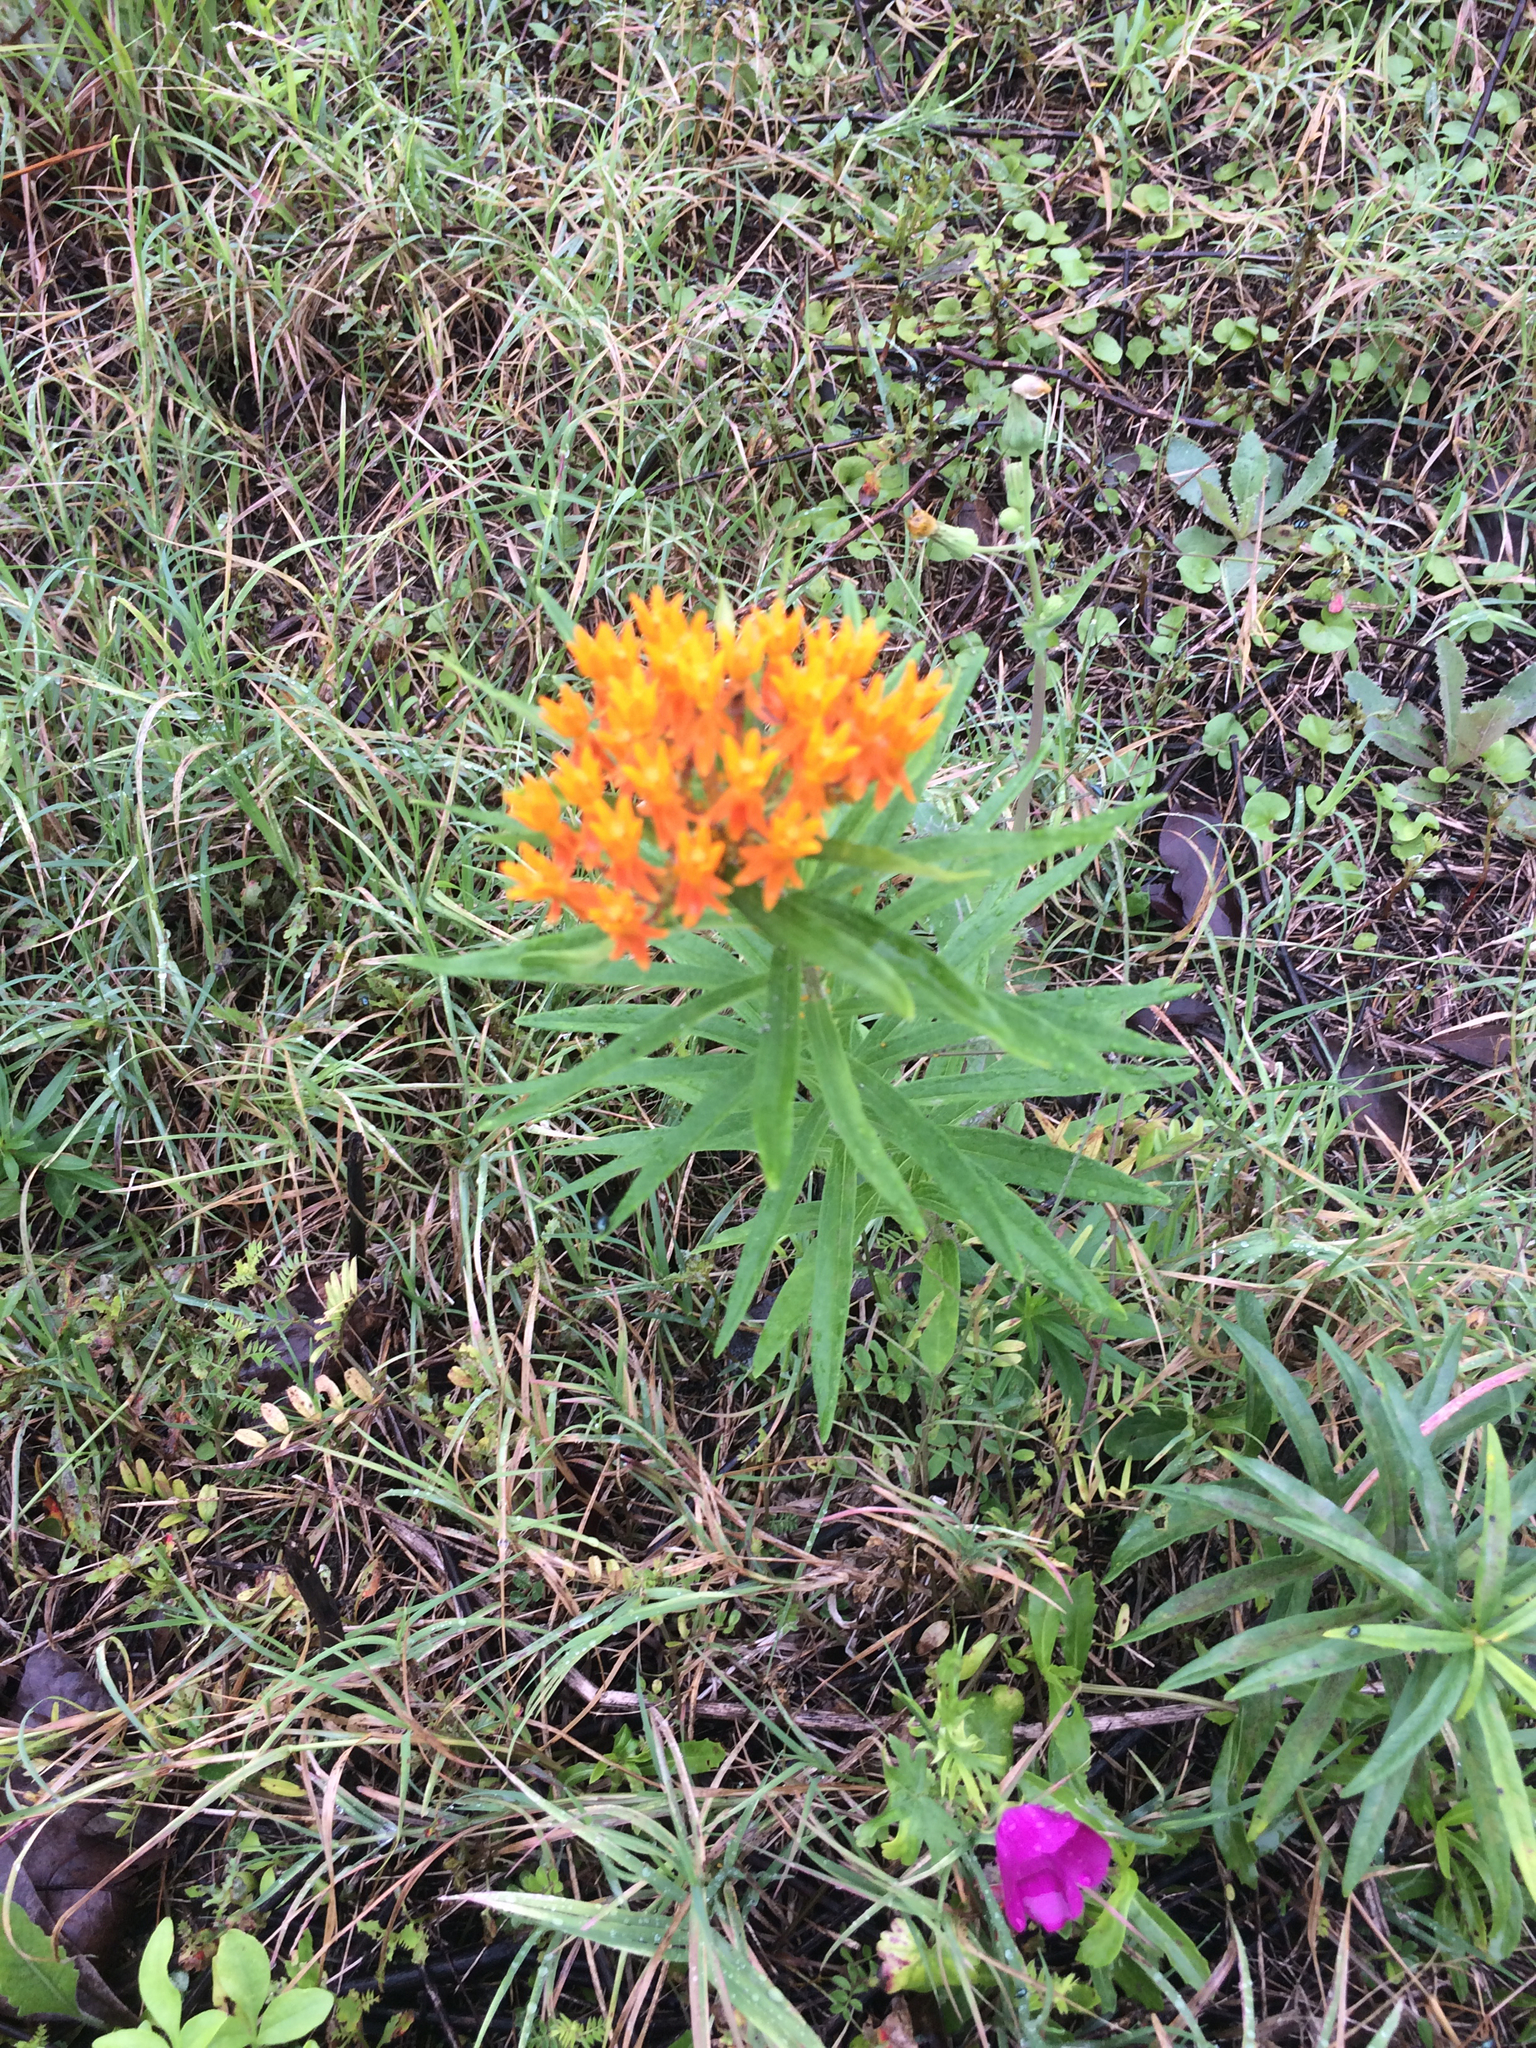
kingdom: Plantae
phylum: Tracheophyta
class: Magnoliopsida
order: Gentianales
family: Apocynaceae
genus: Asclepias
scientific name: Asclepias tuberosa
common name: Butterfly milkweed
